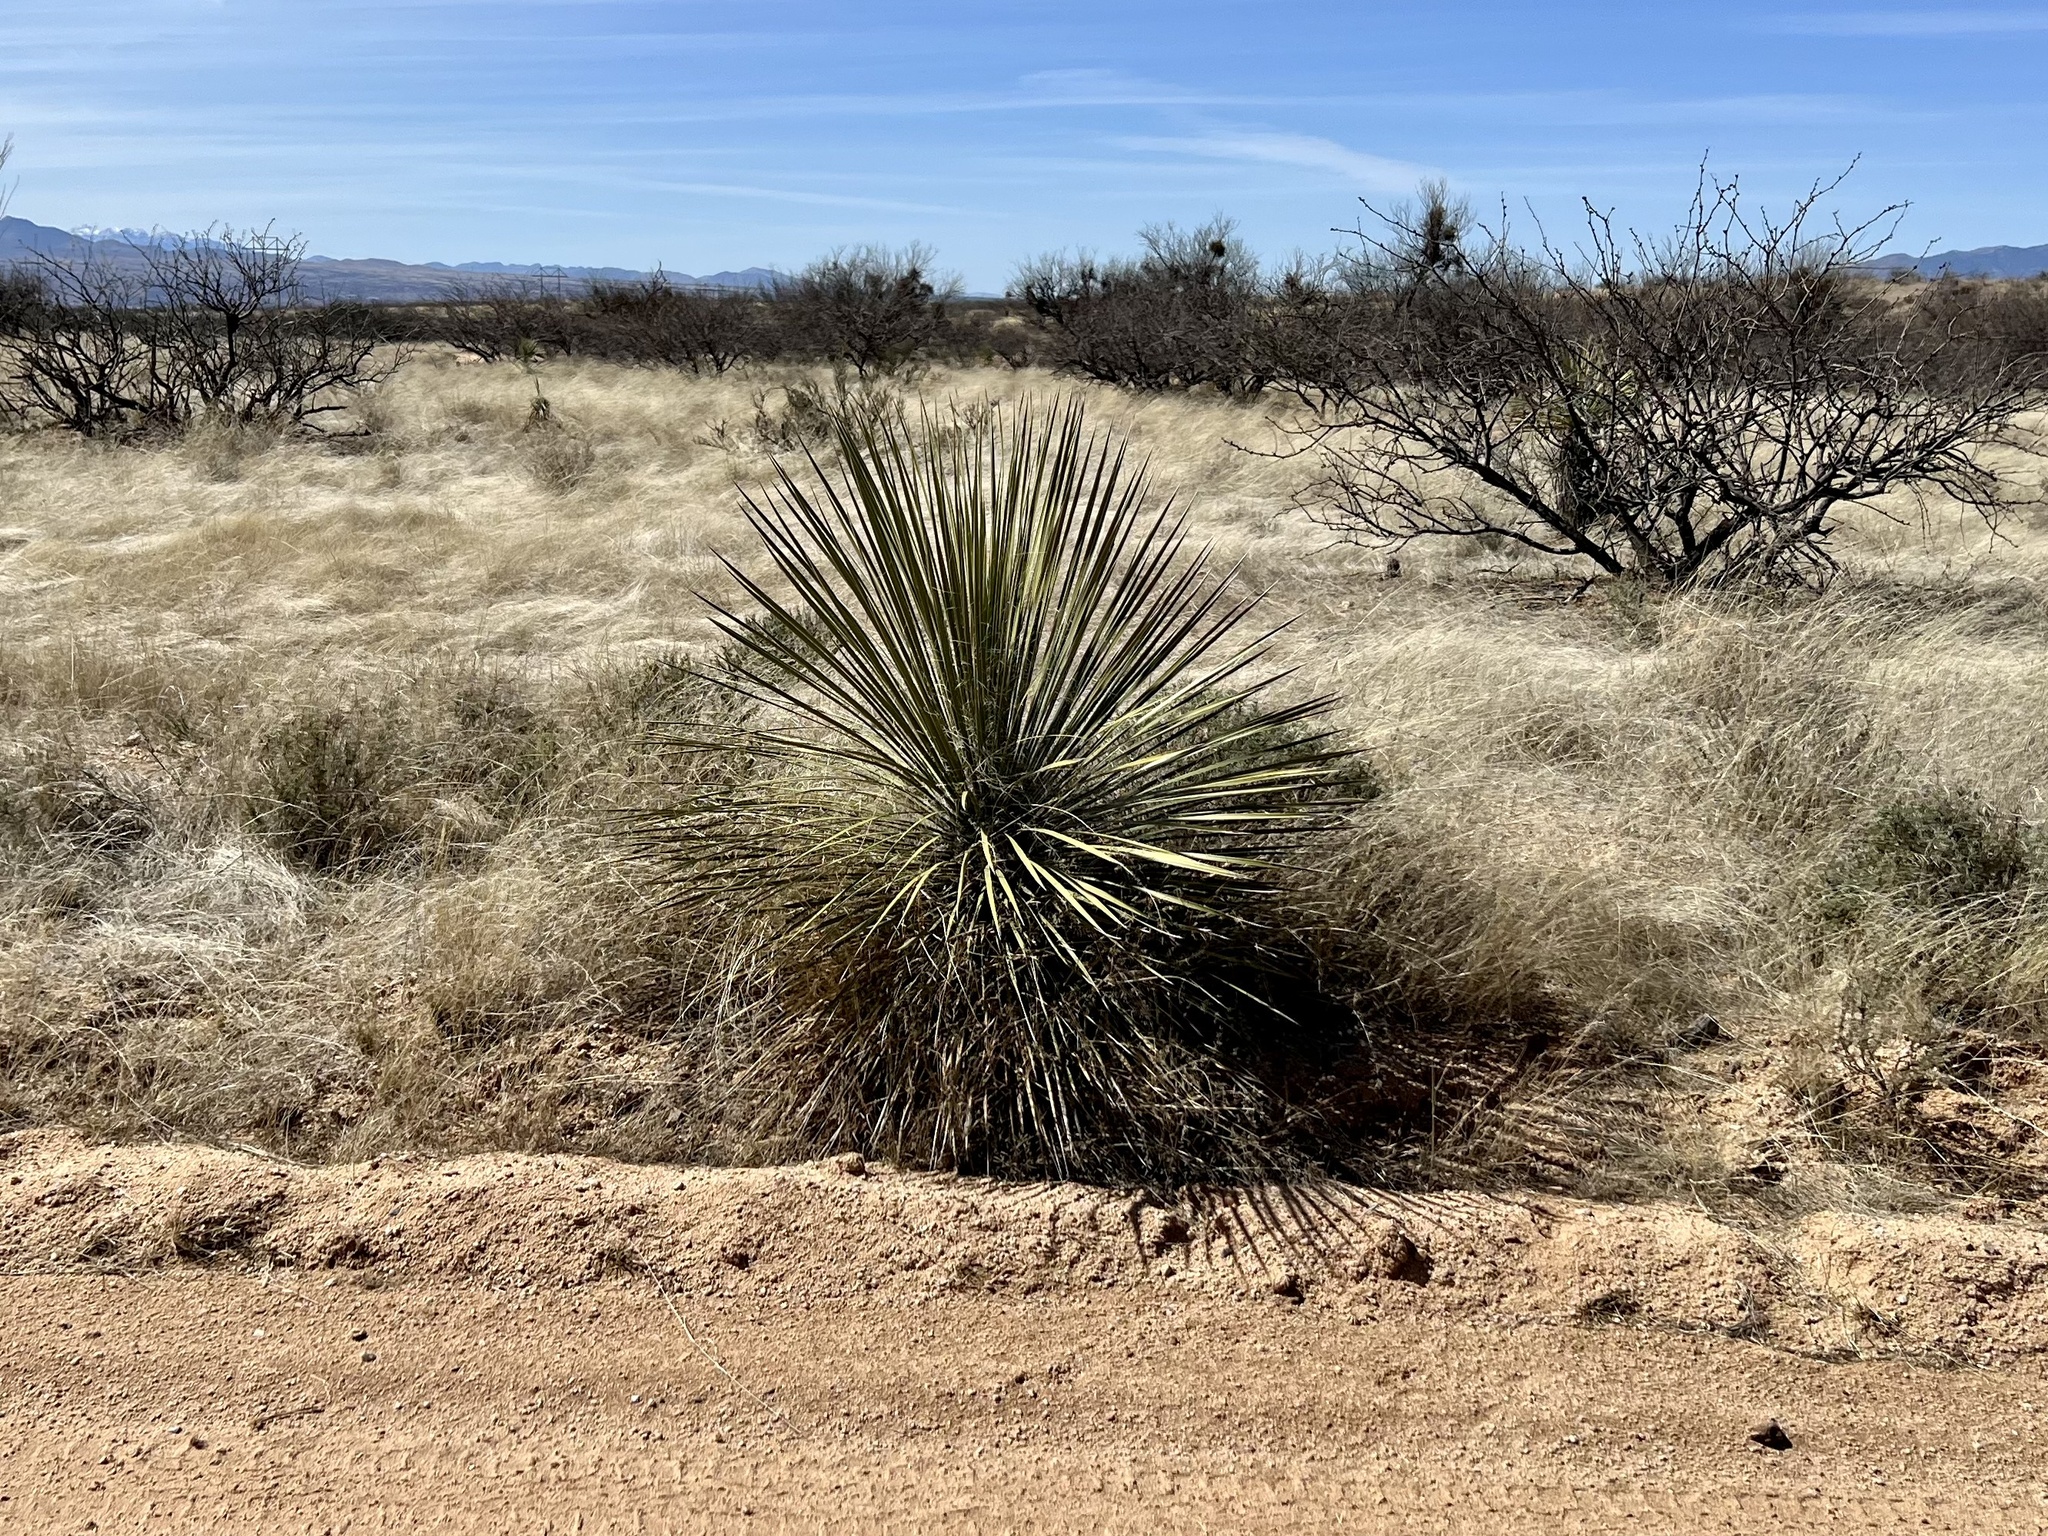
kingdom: Plantae
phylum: Tracheophyta
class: Liliopsida
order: Asparagales
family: Asparagaceae
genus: Yucca
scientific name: Yucca elata
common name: Palmella
